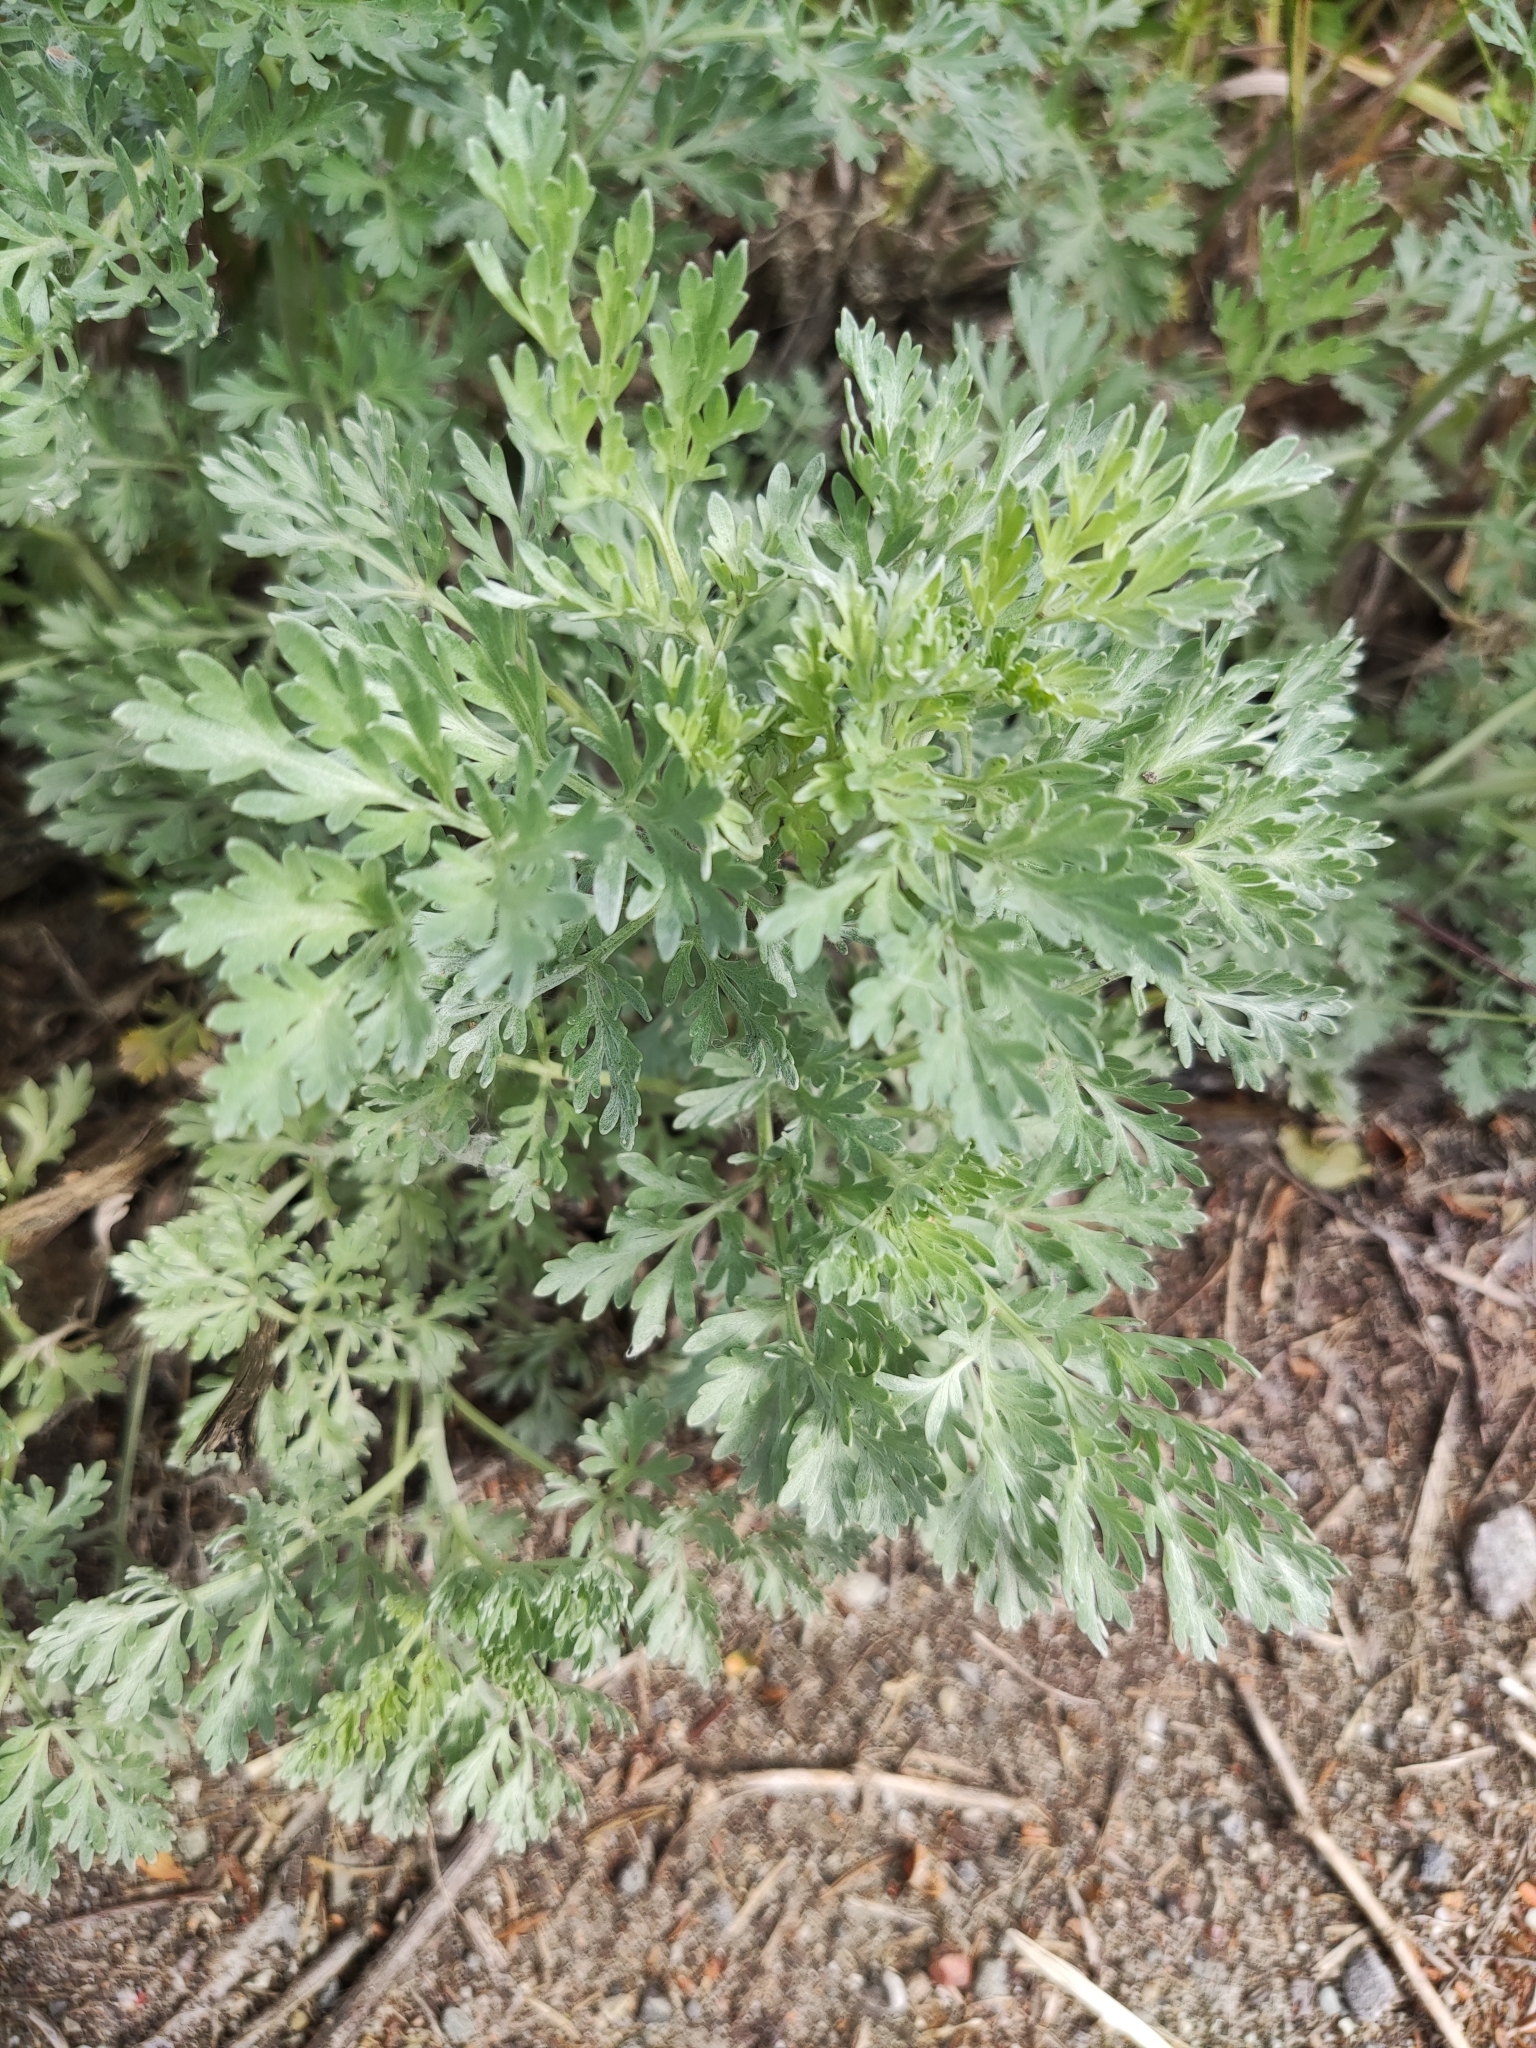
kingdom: Plantae
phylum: Tracheophyta
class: Magnoliopsida
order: Asterales
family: Asteraceae
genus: Artemisia
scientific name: Artemisia absinthium
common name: Wormwood
